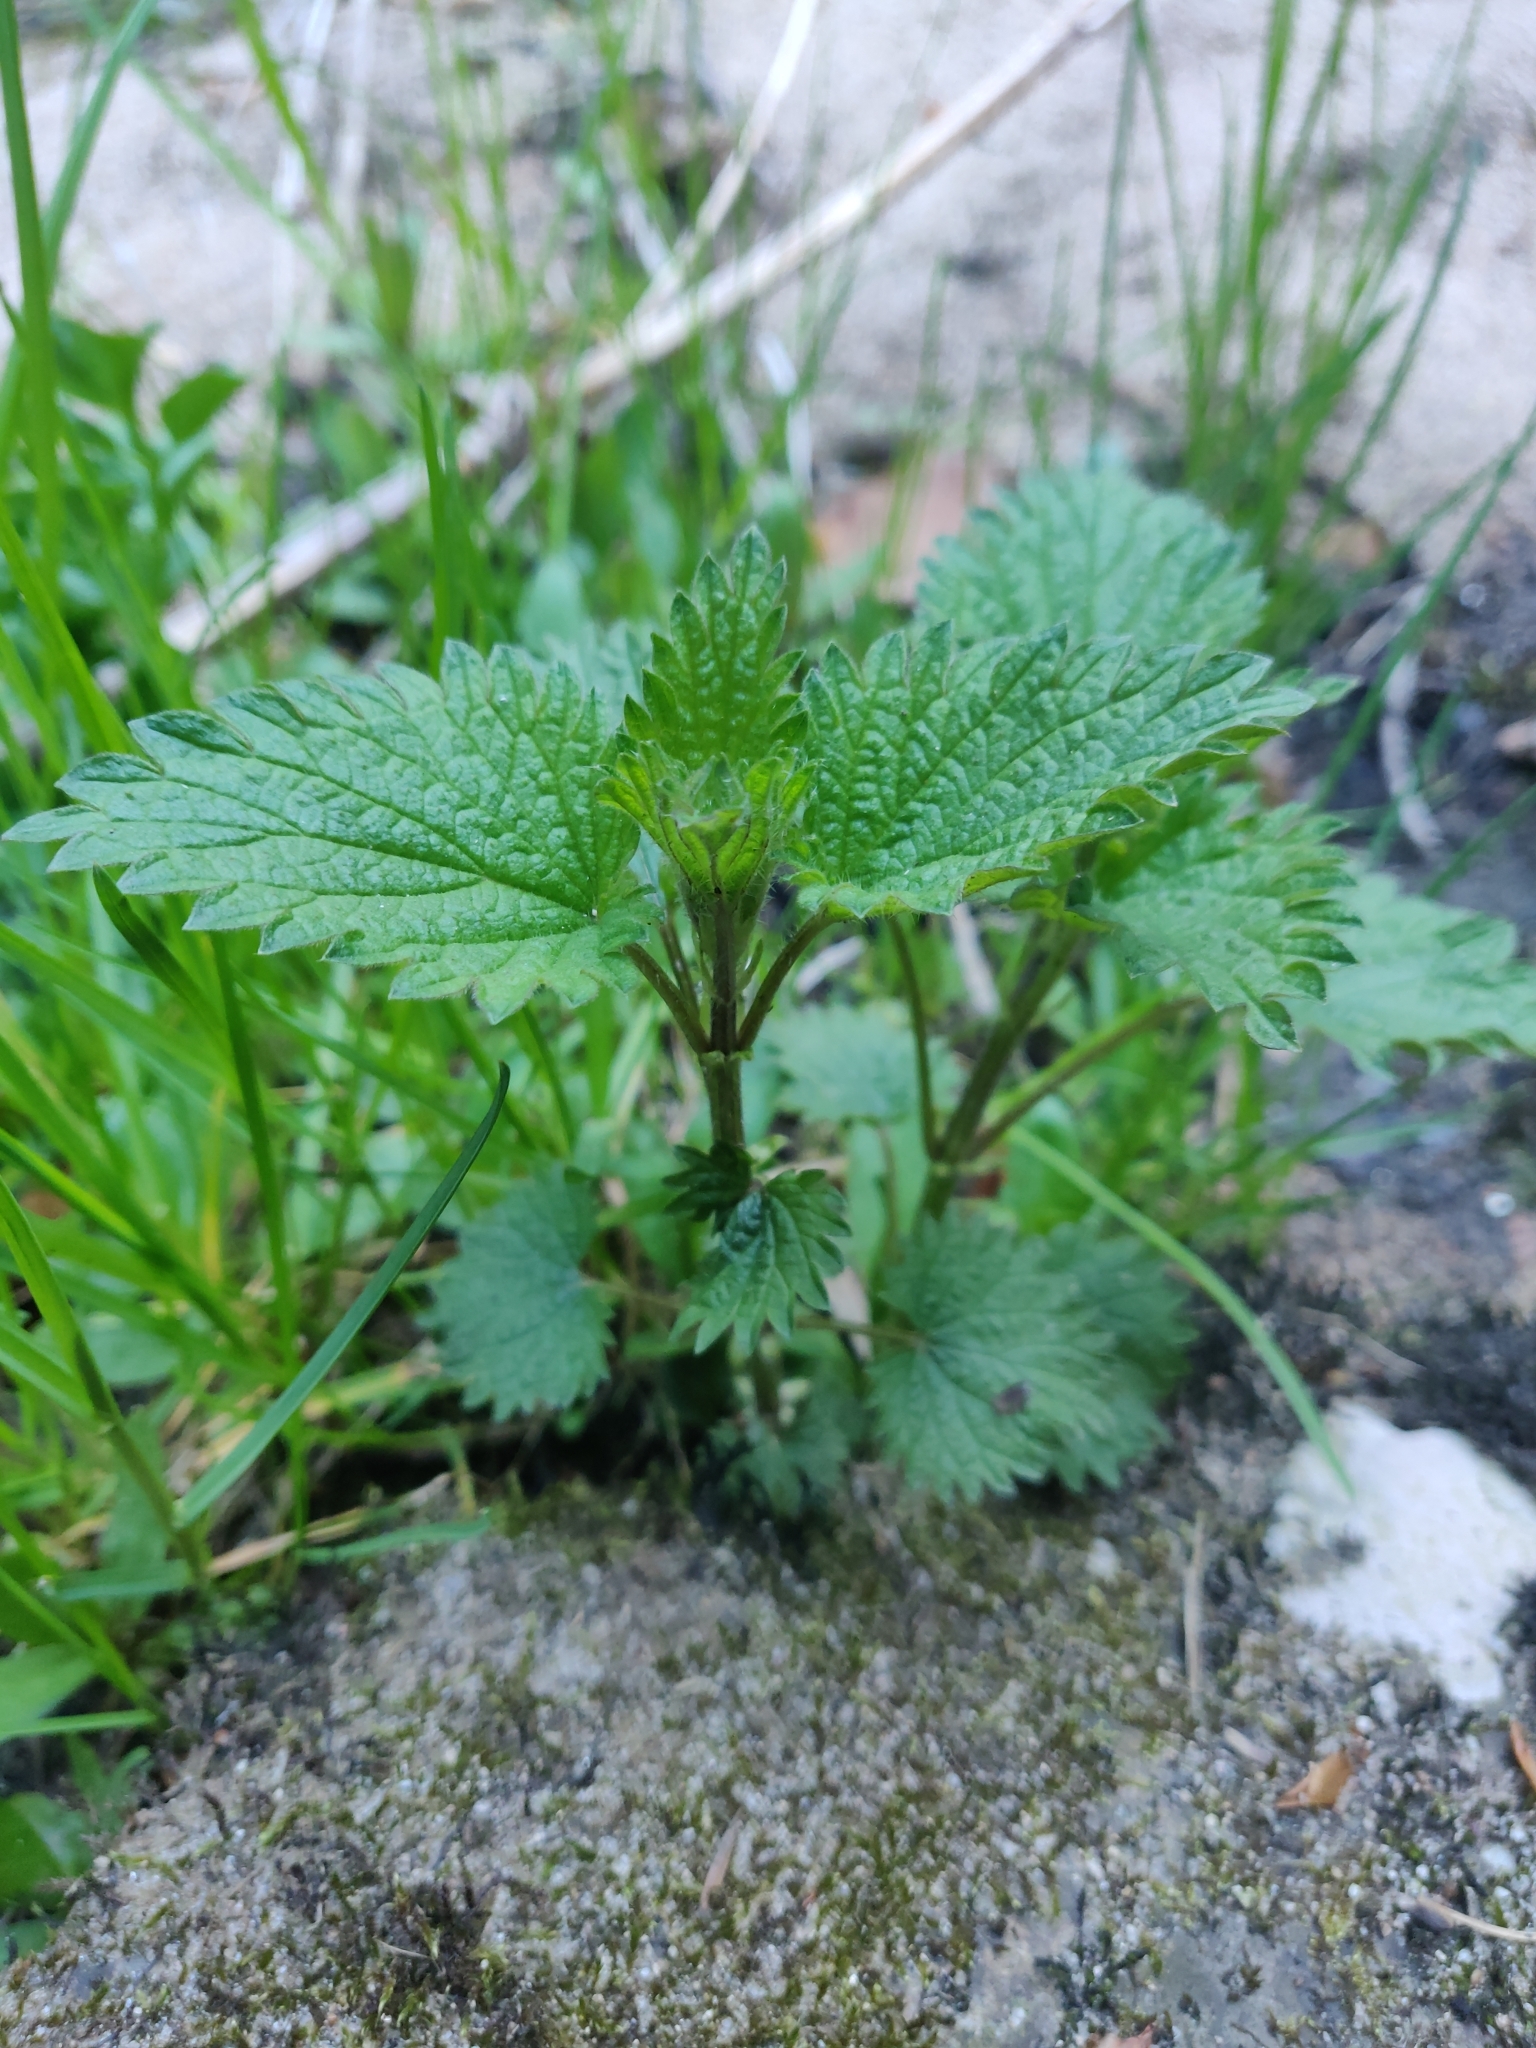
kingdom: Plantae
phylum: Tracheophyta
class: Magnoliopsida
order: Rosales
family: Urticaceae
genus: Urtica
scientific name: Urtica dioica
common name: Common nettle
